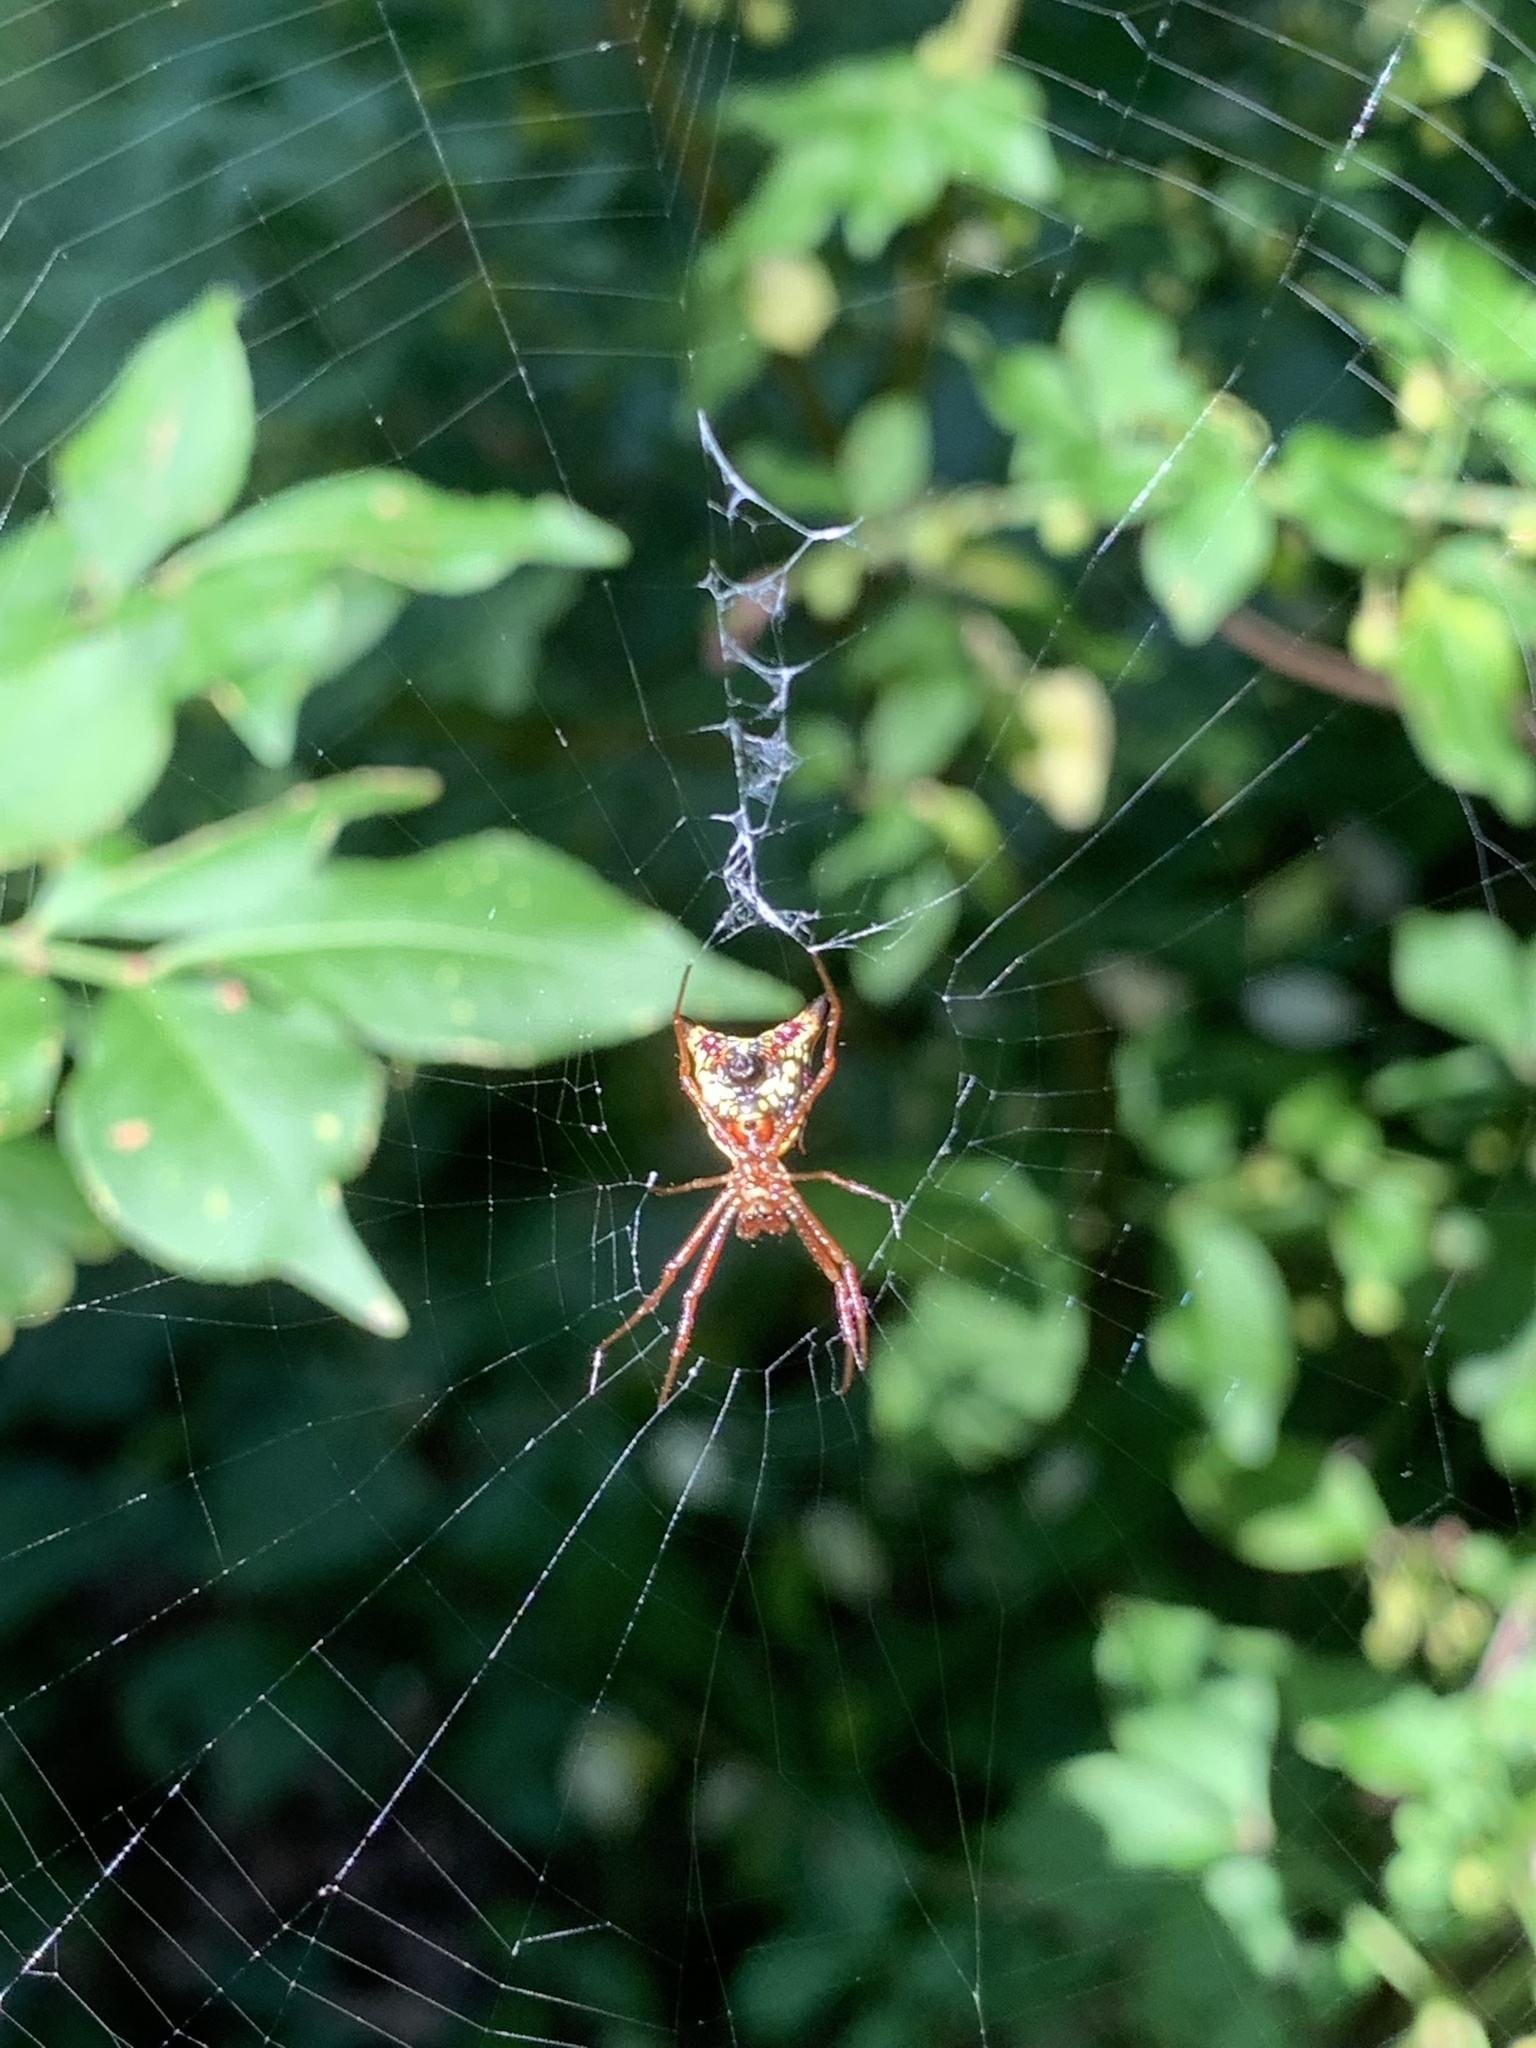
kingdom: Animalia
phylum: Arthropoda
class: Arachnida
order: Araneae
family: Araneidae
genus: Micrathena
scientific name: Micrathena sagittata
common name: Orb weavers
